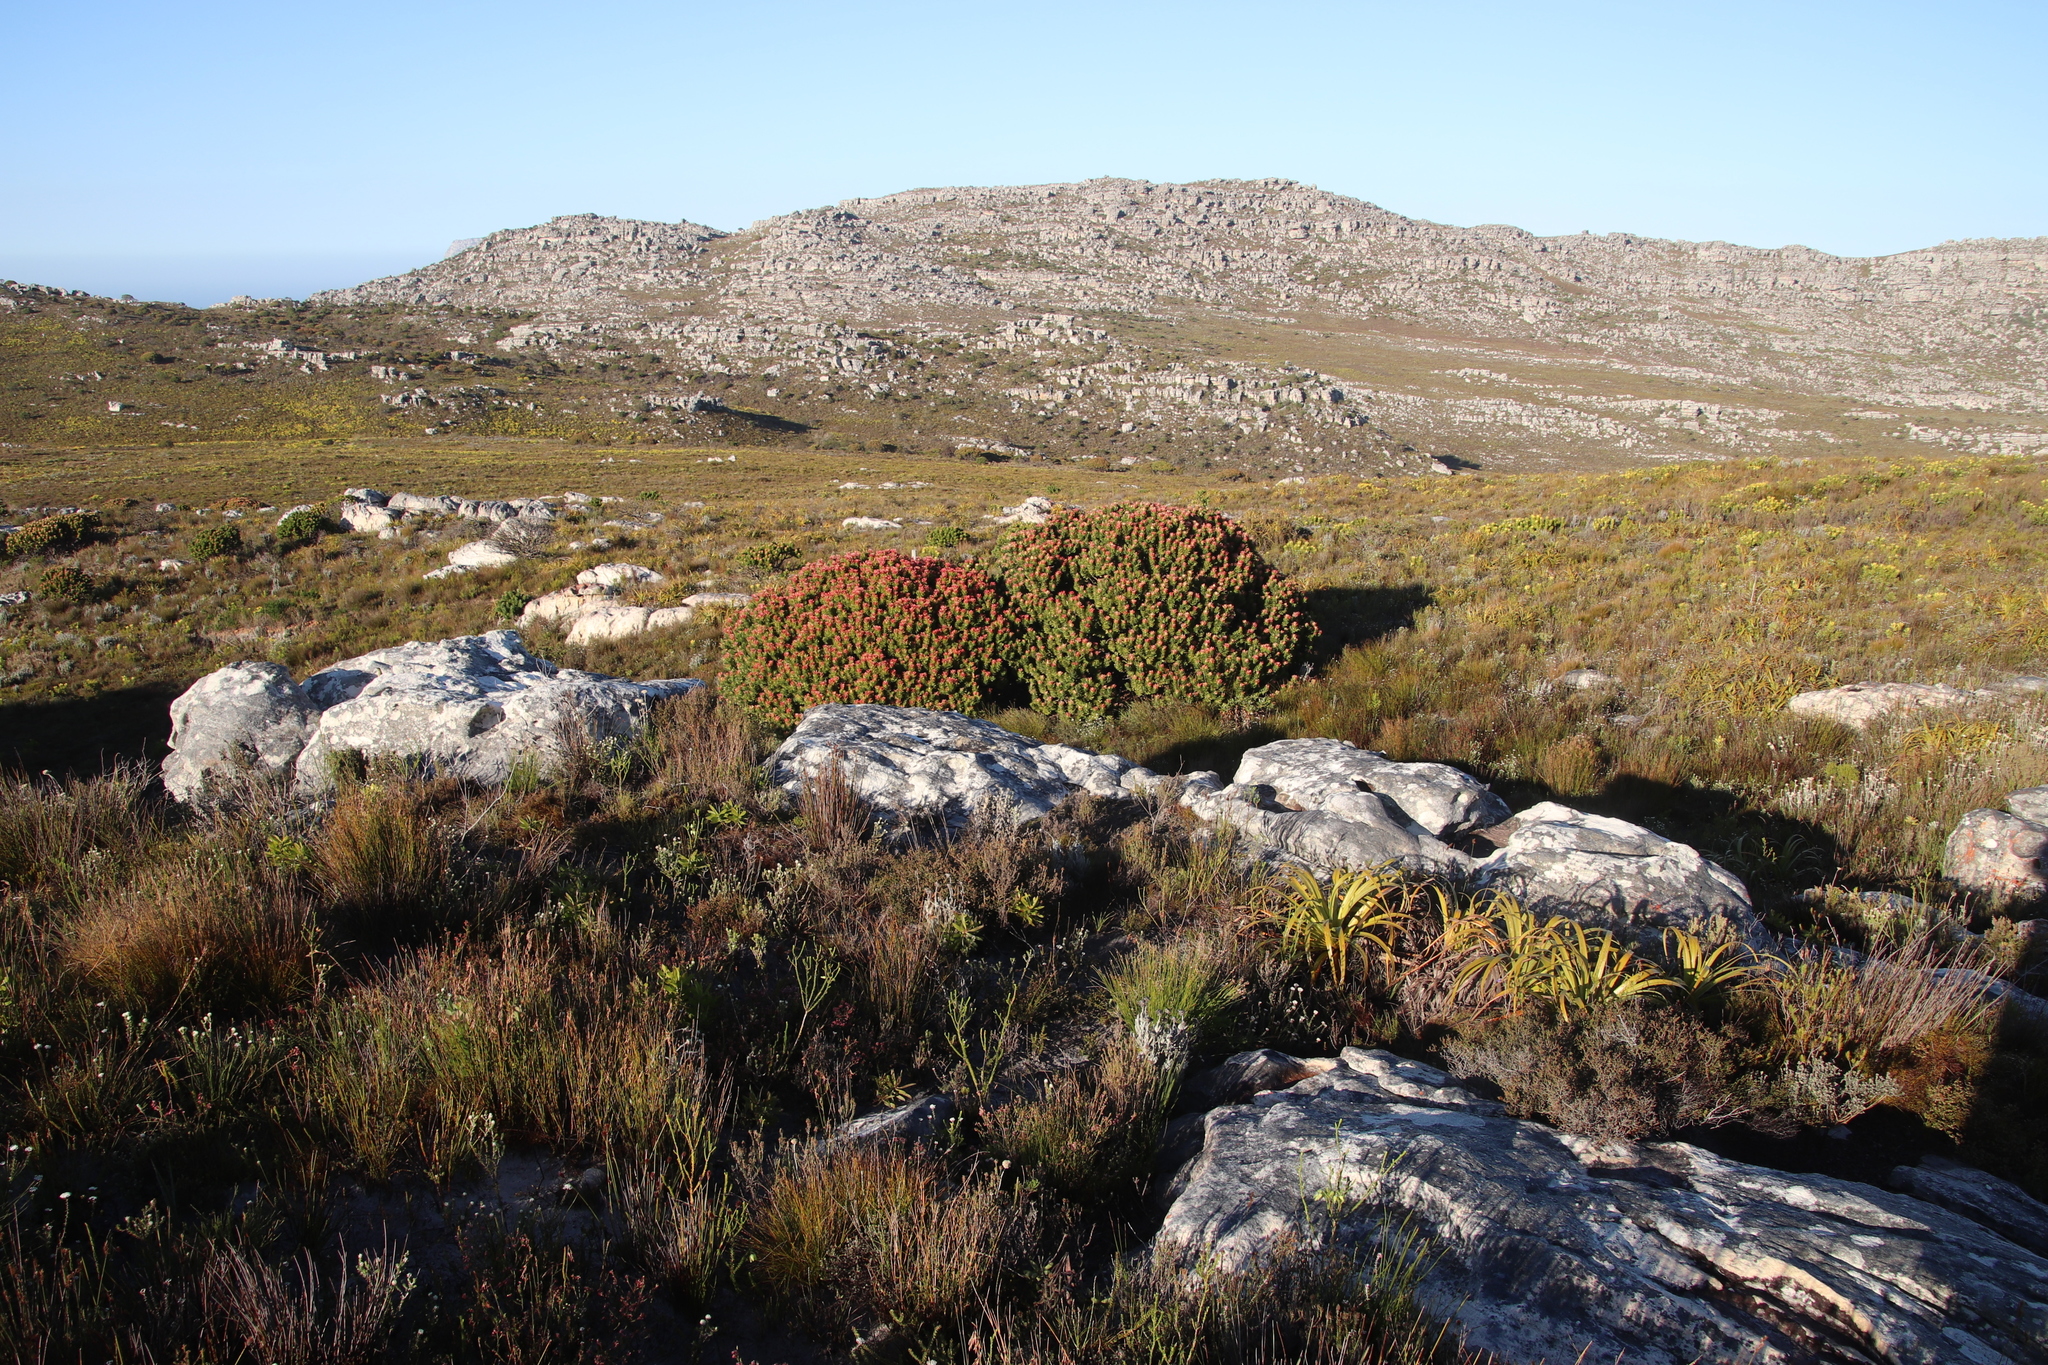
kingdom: Plantae
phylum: Tracheophyta
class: Magnoliopsida
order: Proteales
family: Proteaceae
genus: Mimetes
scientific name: Mimetes fimbriifolius
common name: Fringed bottlebrush
